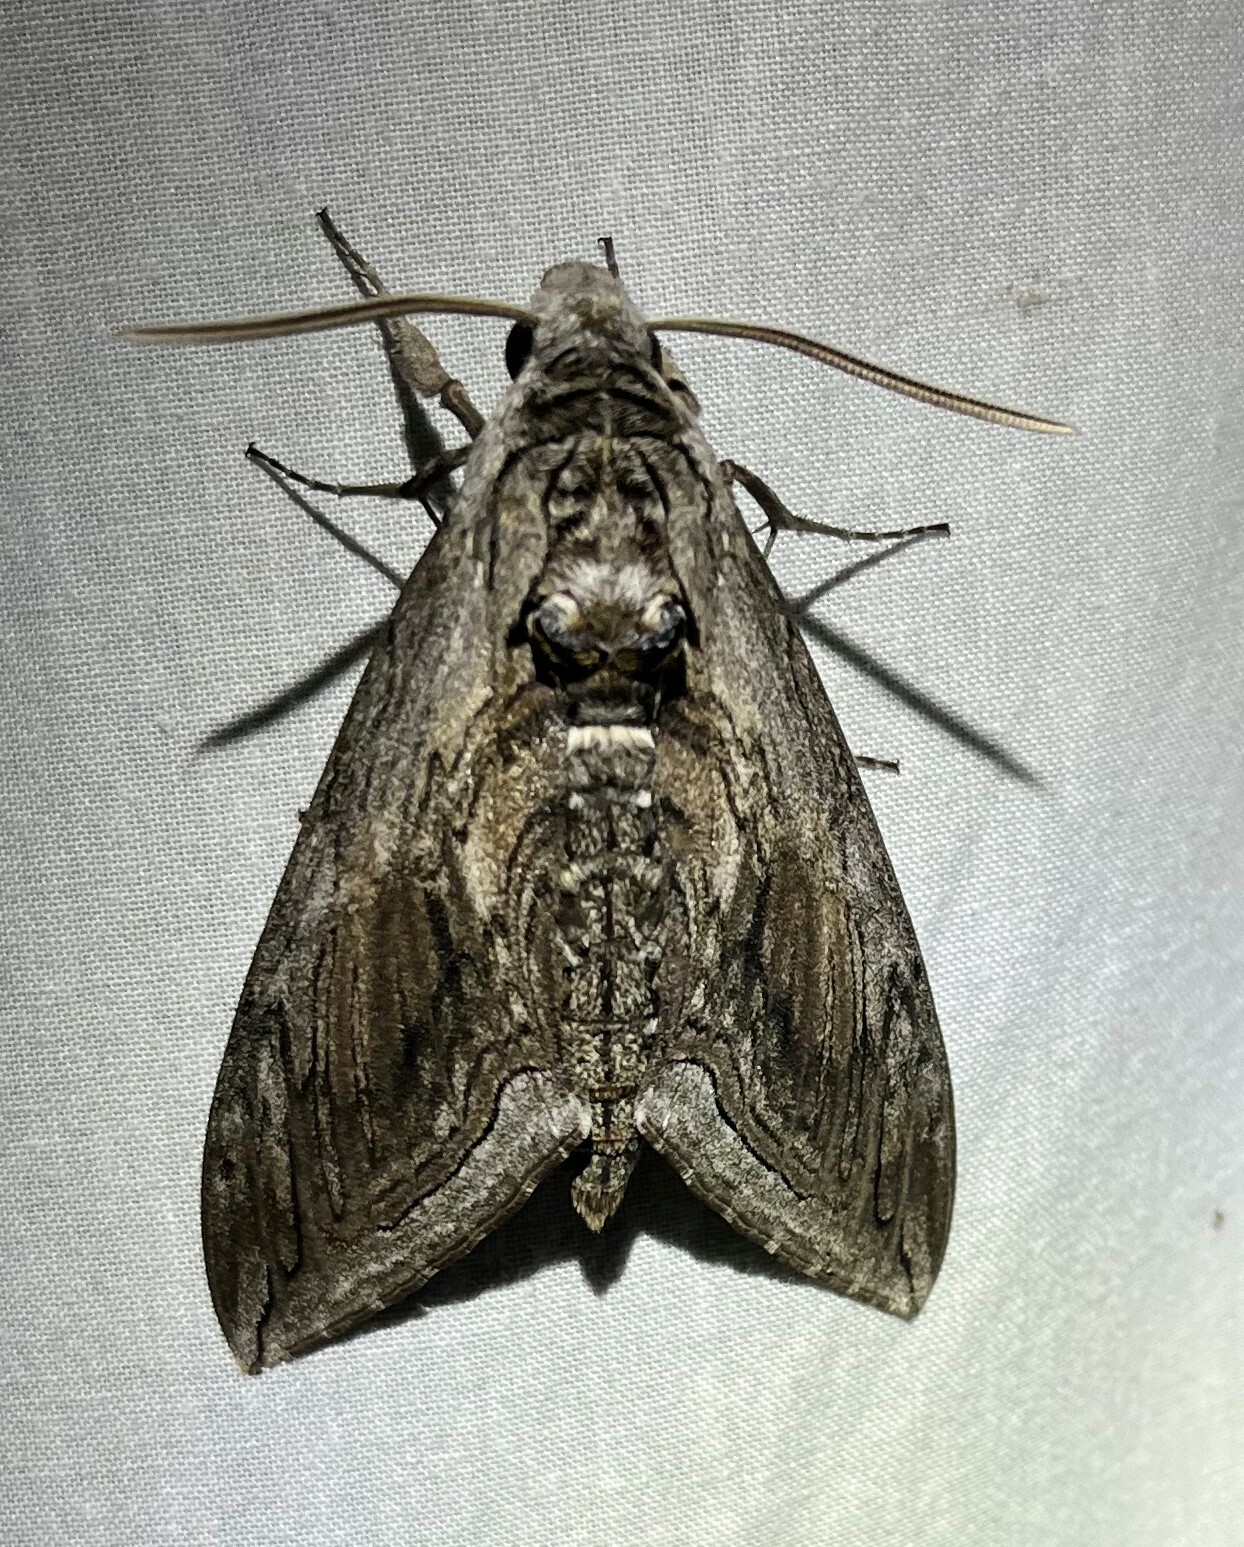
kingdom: Animalia
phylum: Arthropoda
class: Insecta
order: Lepidoptera
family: Sphingidae
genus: Manduca
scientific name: Manduca quinquemaculatus
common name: Five-spotted hawk-moth
